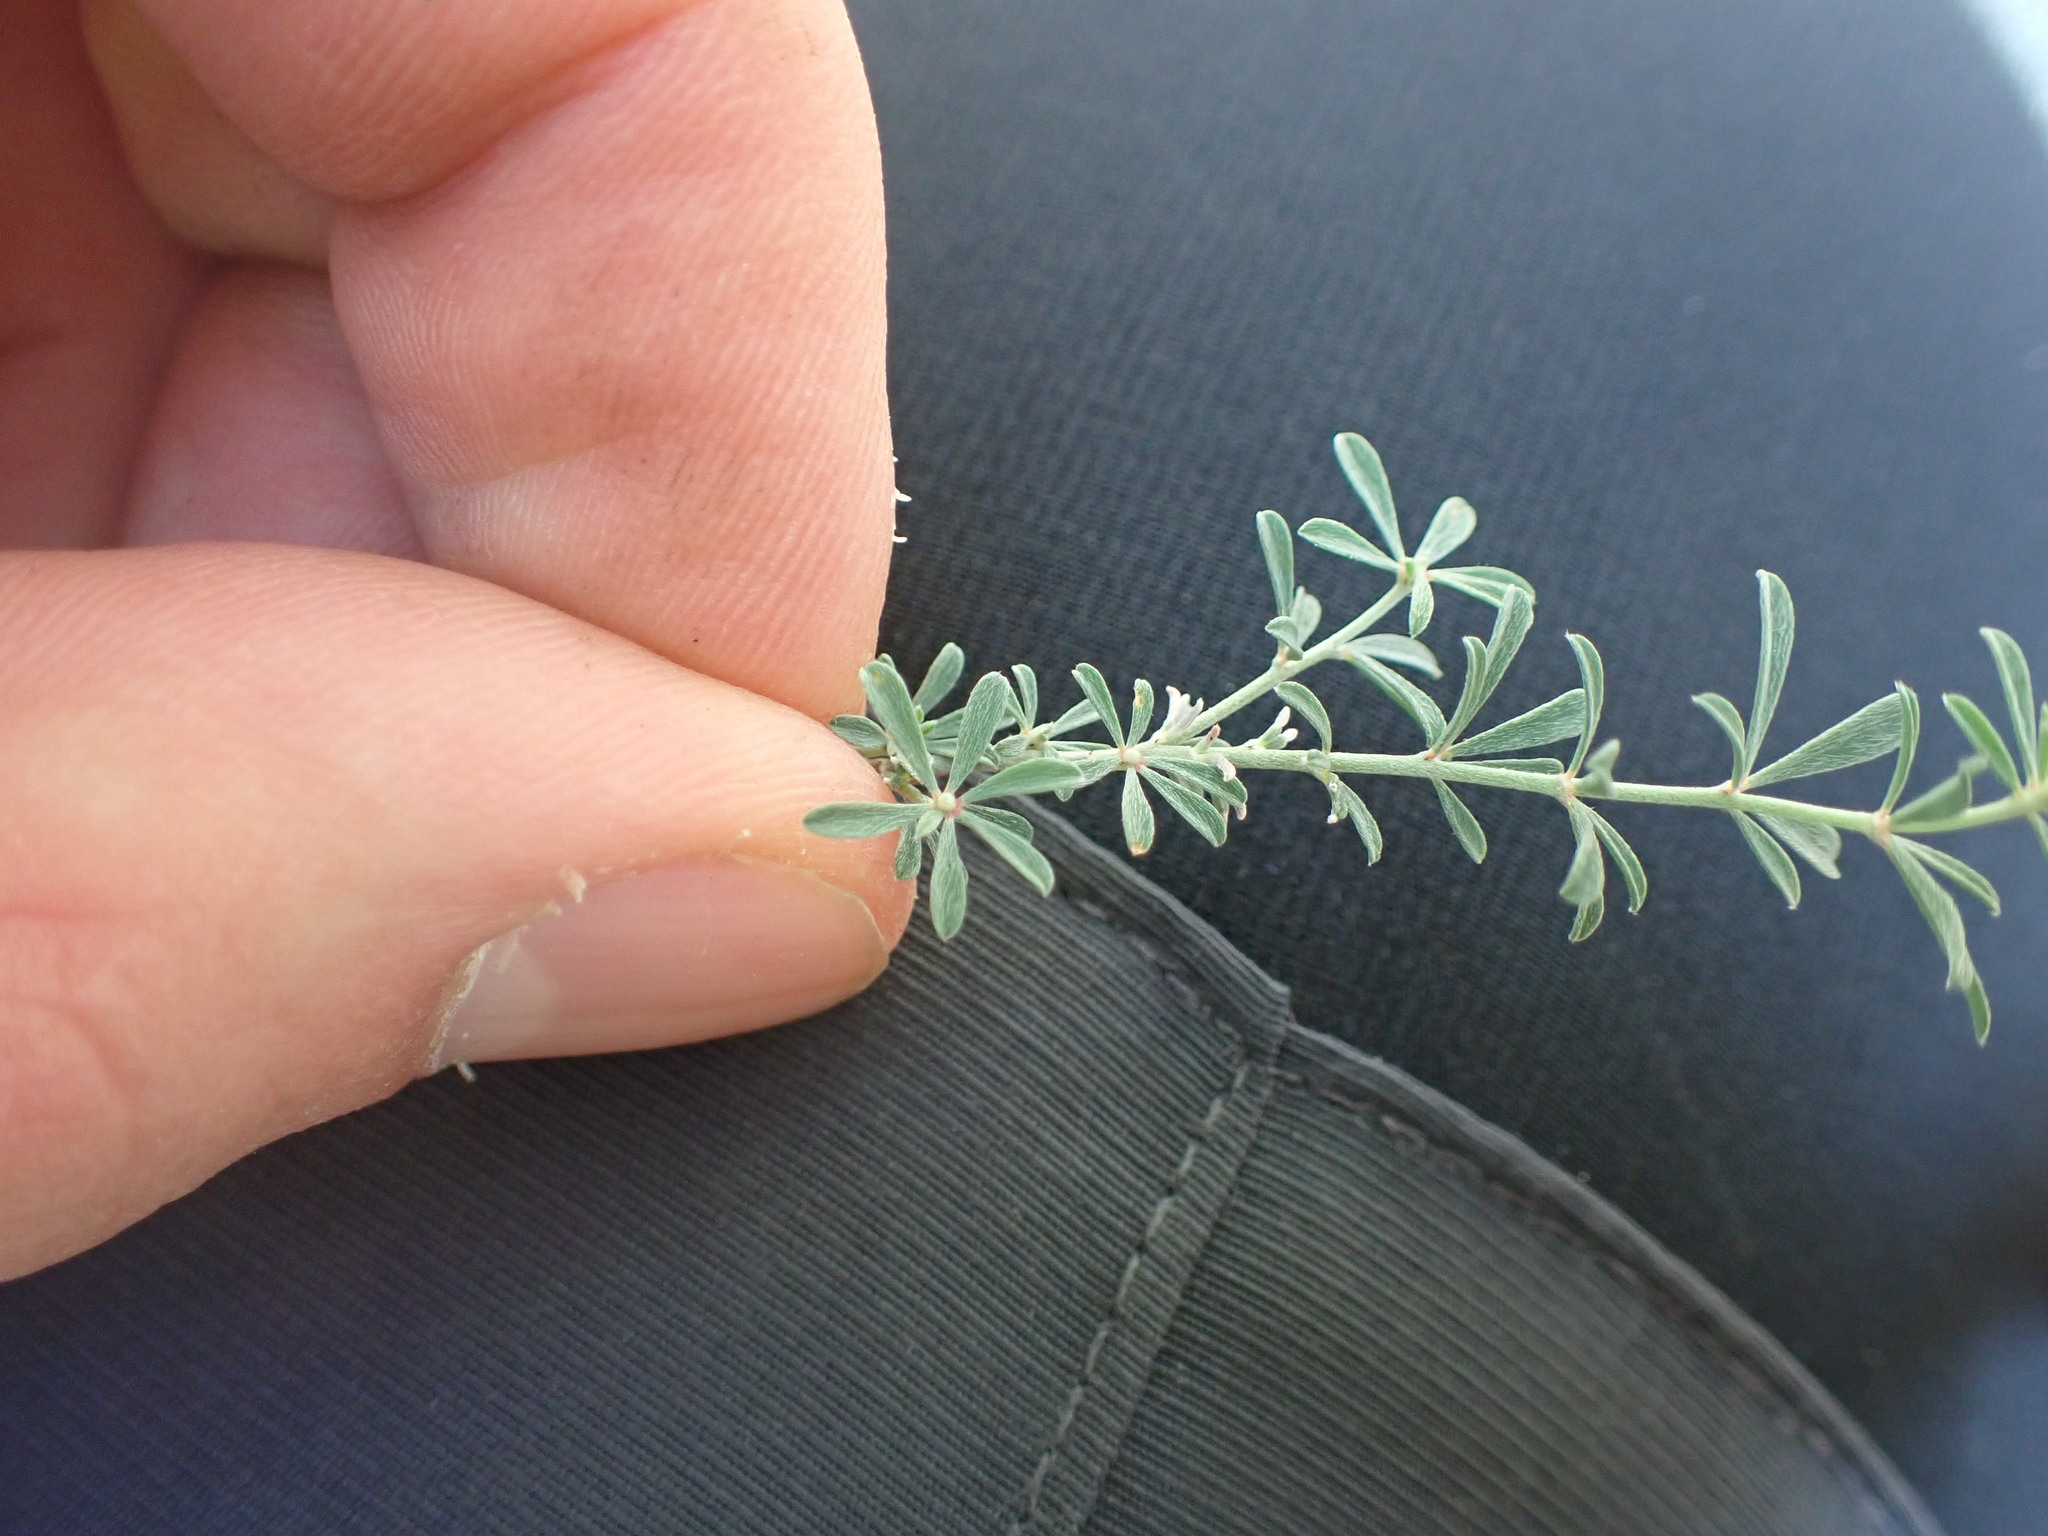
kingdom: Plantae
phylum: Tracheophyta
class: Magnoliopsida
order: Fabales
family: Fabaceae
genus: Lotus
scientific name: Lotus dorycnium
